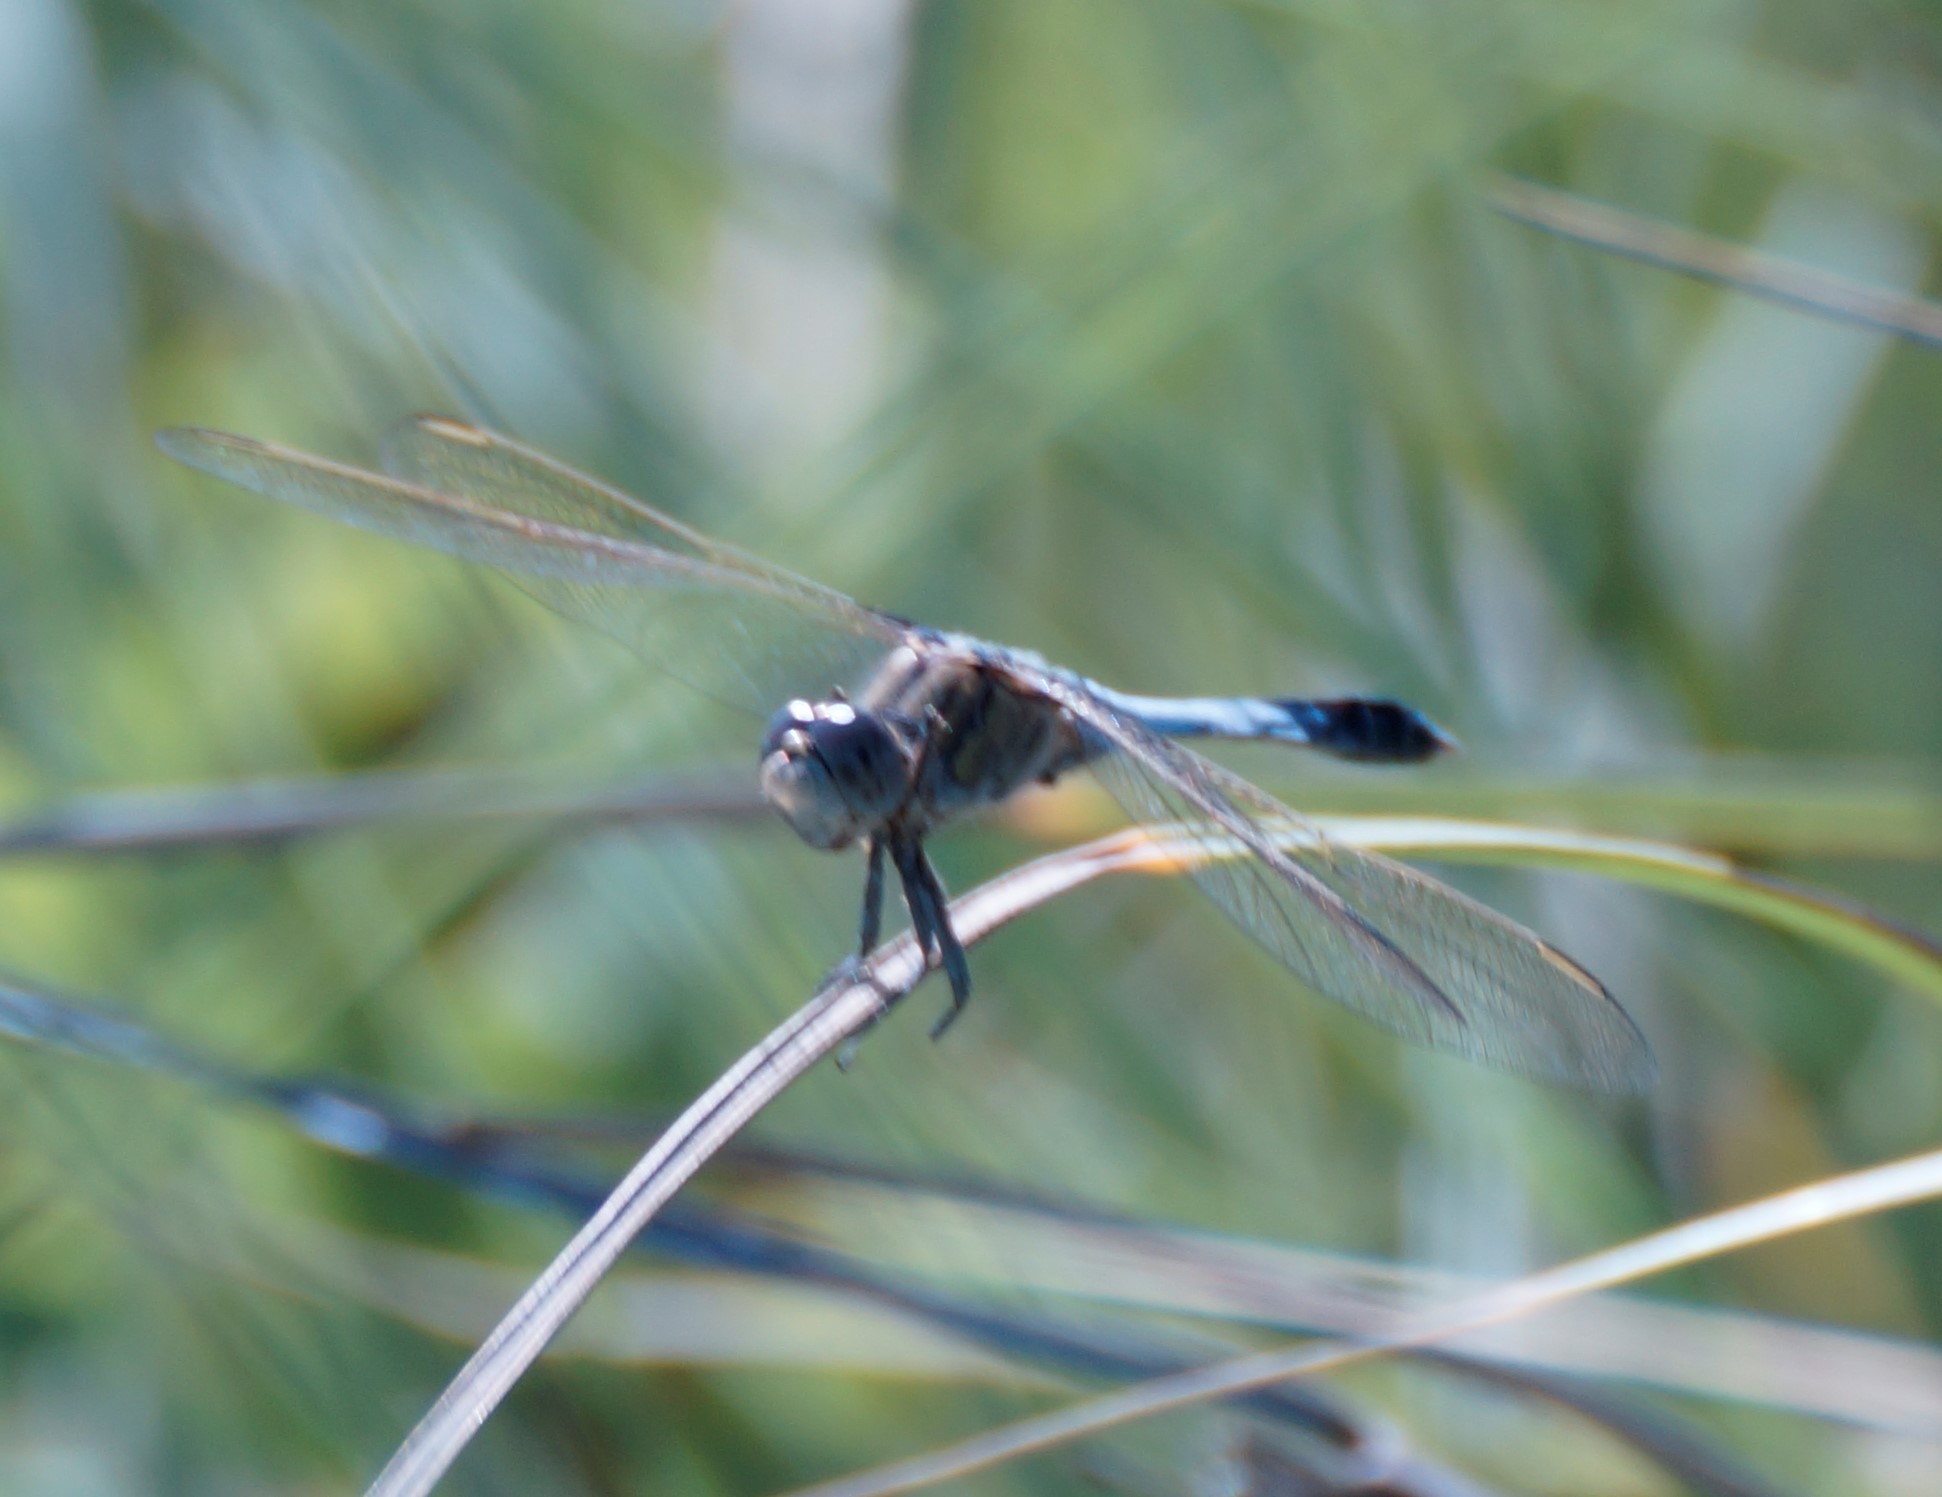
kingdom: Animalia
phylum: Arthropoda
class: Insecta
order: Odonata
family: Libellulidae
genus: Orthetrum
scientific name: Orthetrum caledonicum
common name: Blue skimmer
